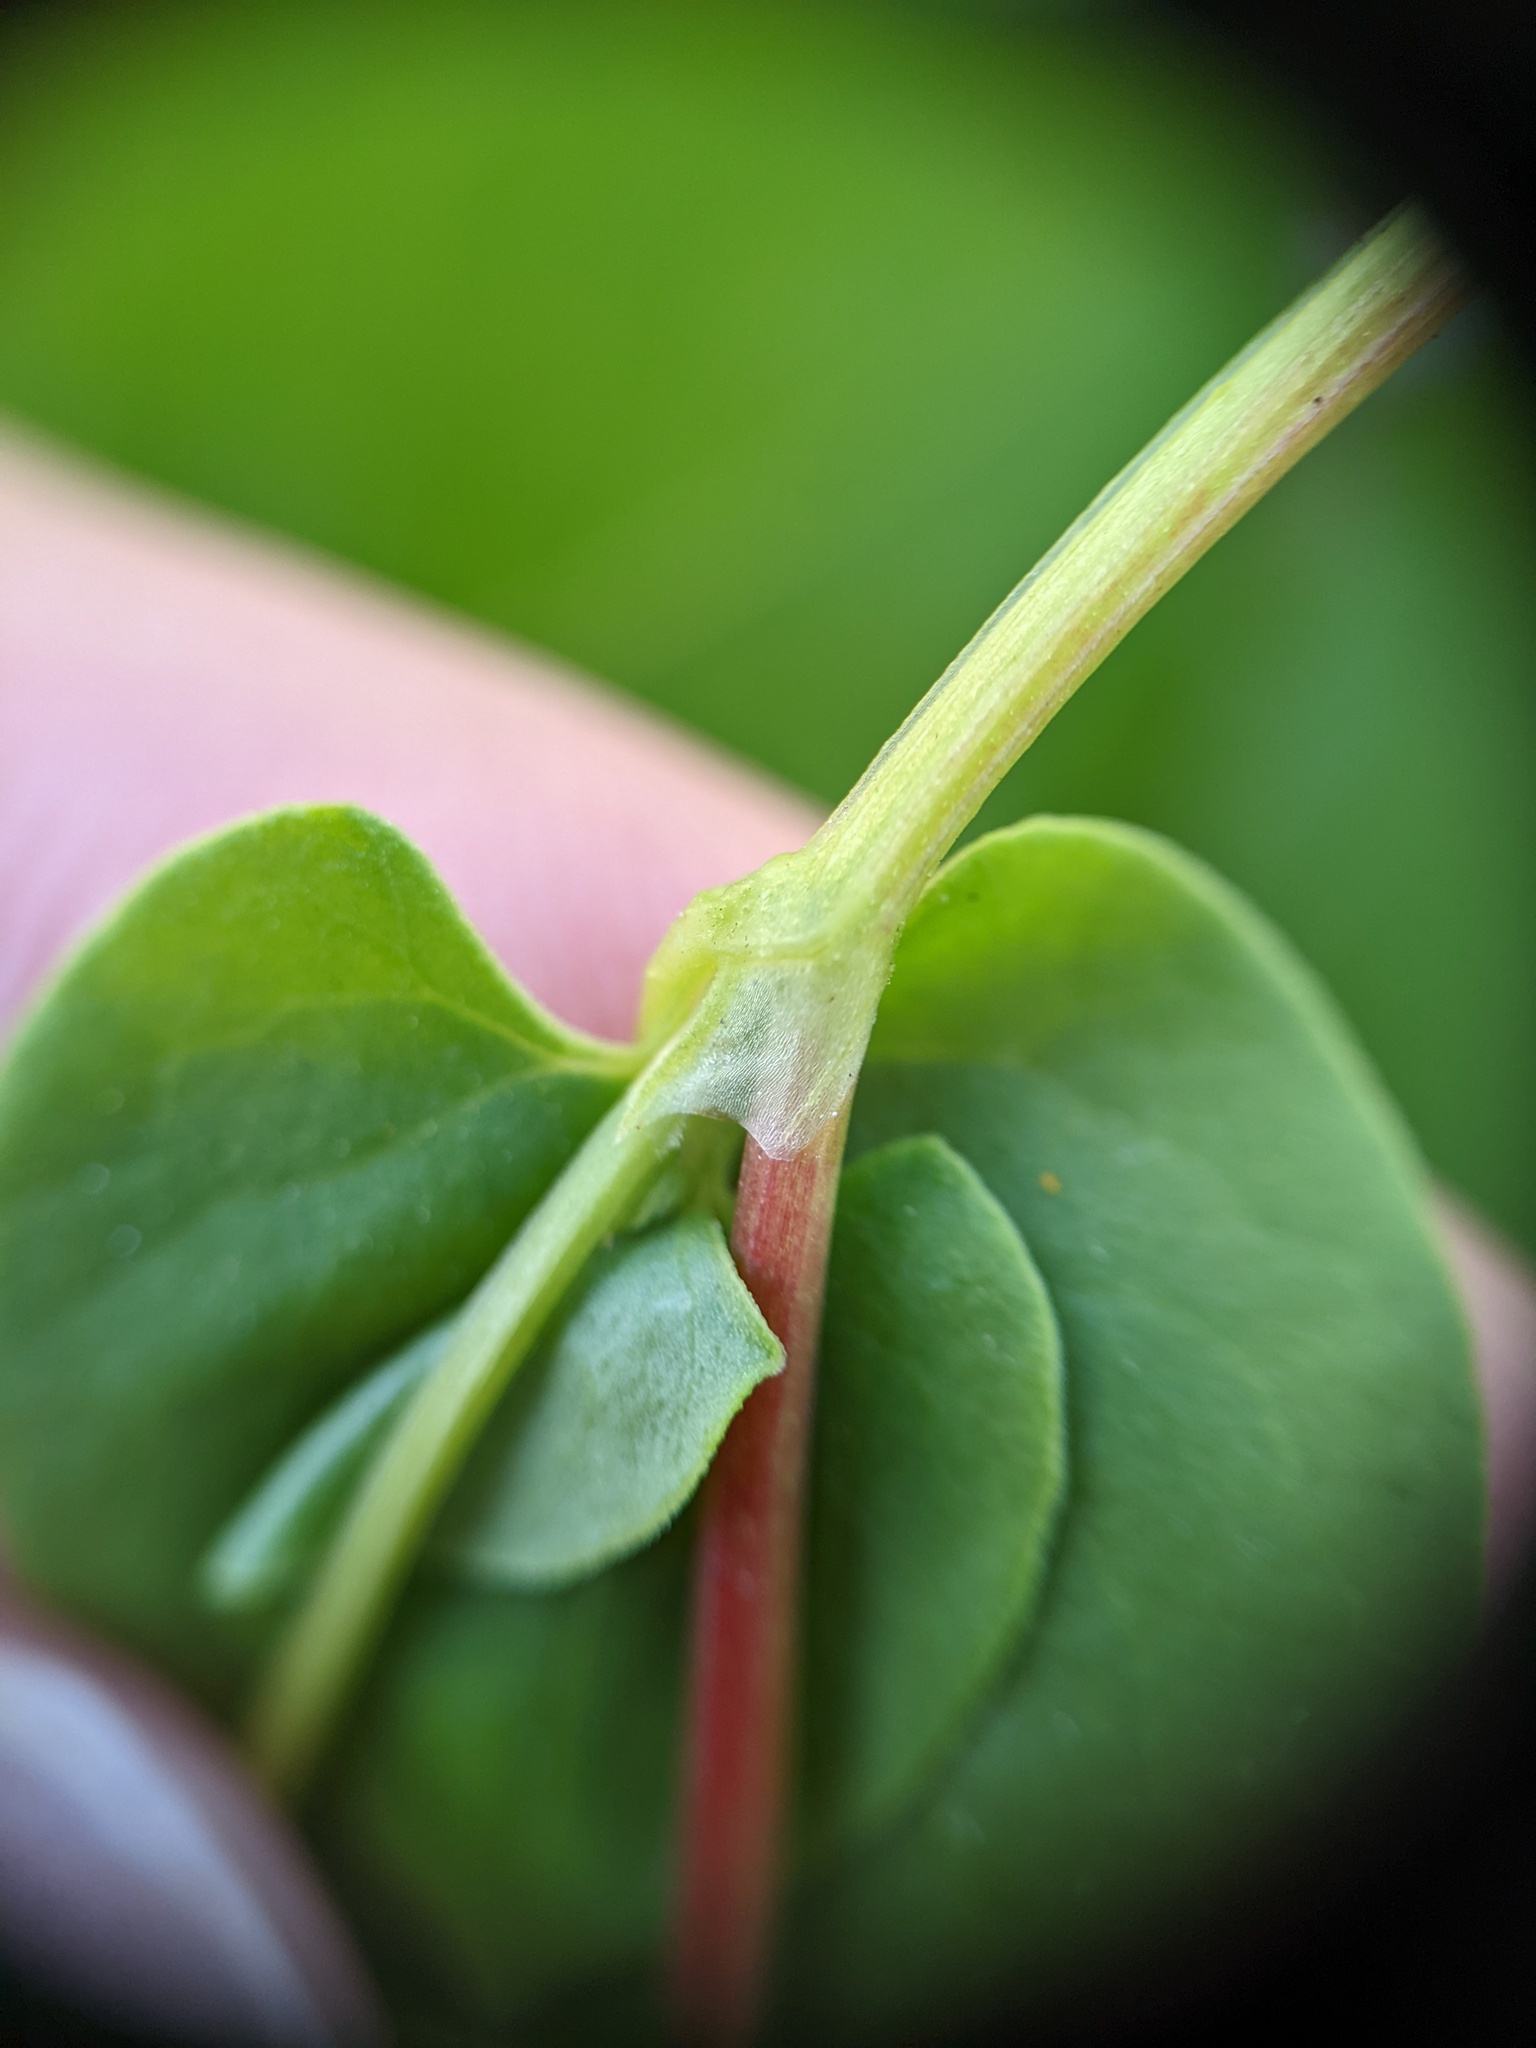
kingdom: Plantae
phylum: Tracheophyta
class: Magnoliopsida
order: Caryophyllales
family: Polygonaceae
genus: Fallopia
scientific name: Fallopia scandens
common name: Climbing false buckwheat
